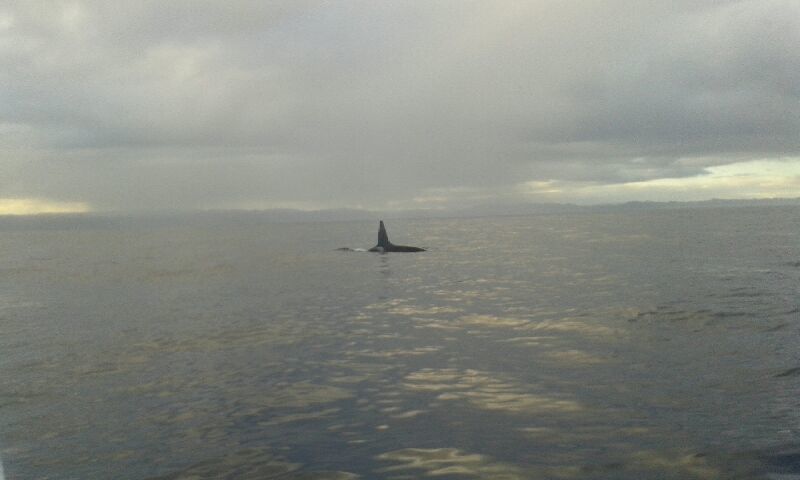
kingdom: Animalia
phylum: Chordata
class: Mammalia
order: Cetacea
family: Delphinidae
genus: Orcinus
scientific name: Orcinus orca
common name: Killer whale
